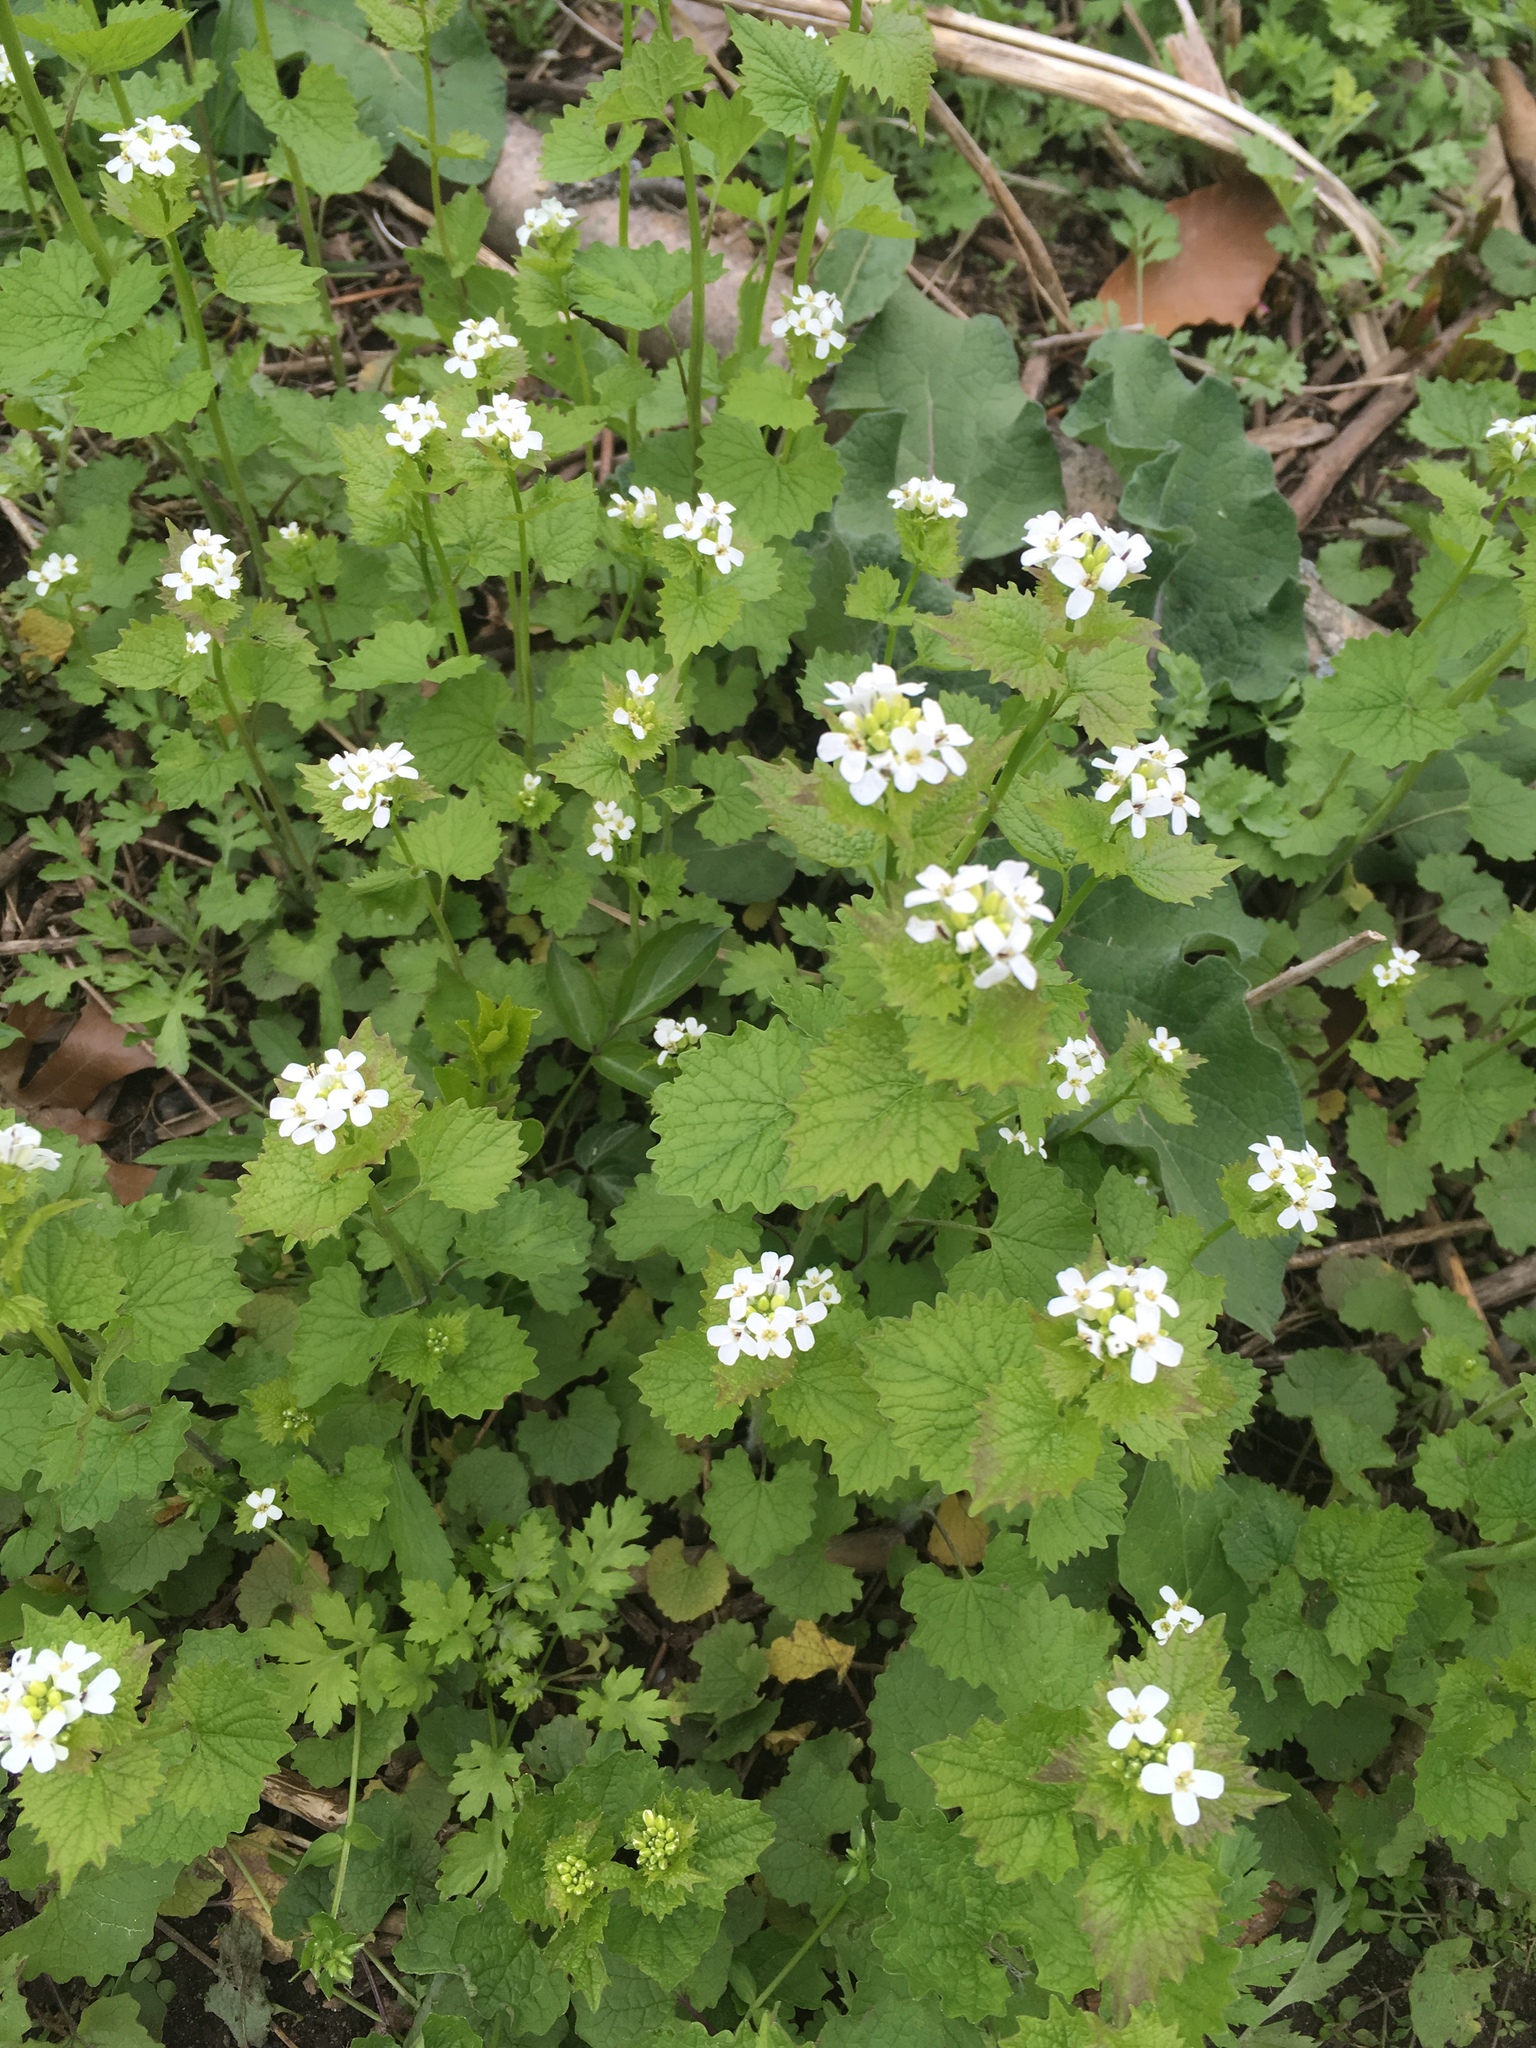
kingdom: Plantae
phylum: Tracheophyta
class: Magnoliopsida
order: Brassicales
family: Brassicaceae
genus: Alliaria
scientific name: Alliaria petiolata
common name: Garlic mustard
